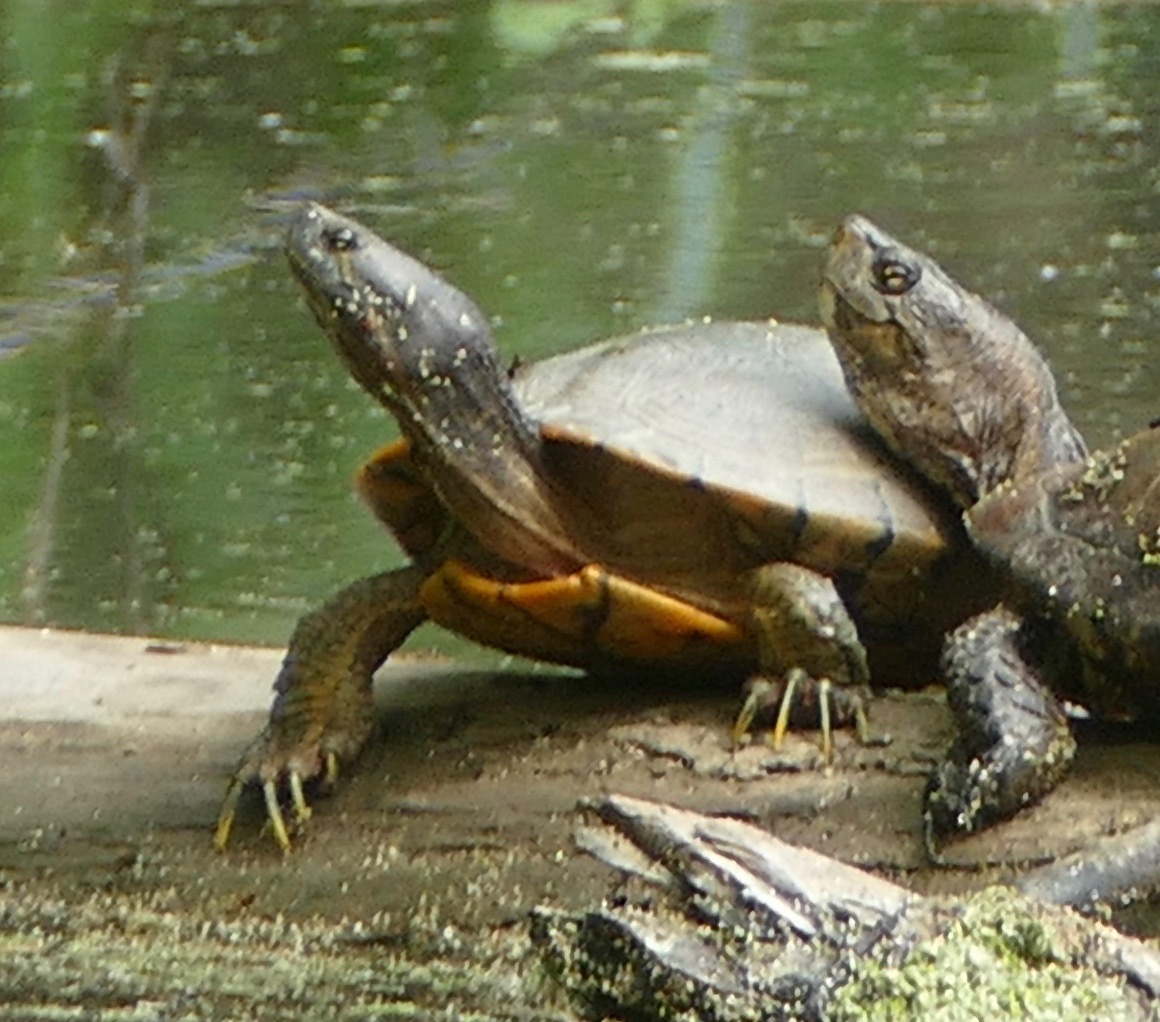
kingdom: Animalia
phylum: Chordata
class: Testudines
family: Emydidae
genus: Trachemys
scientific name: Trachemys scripta
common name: Slider
